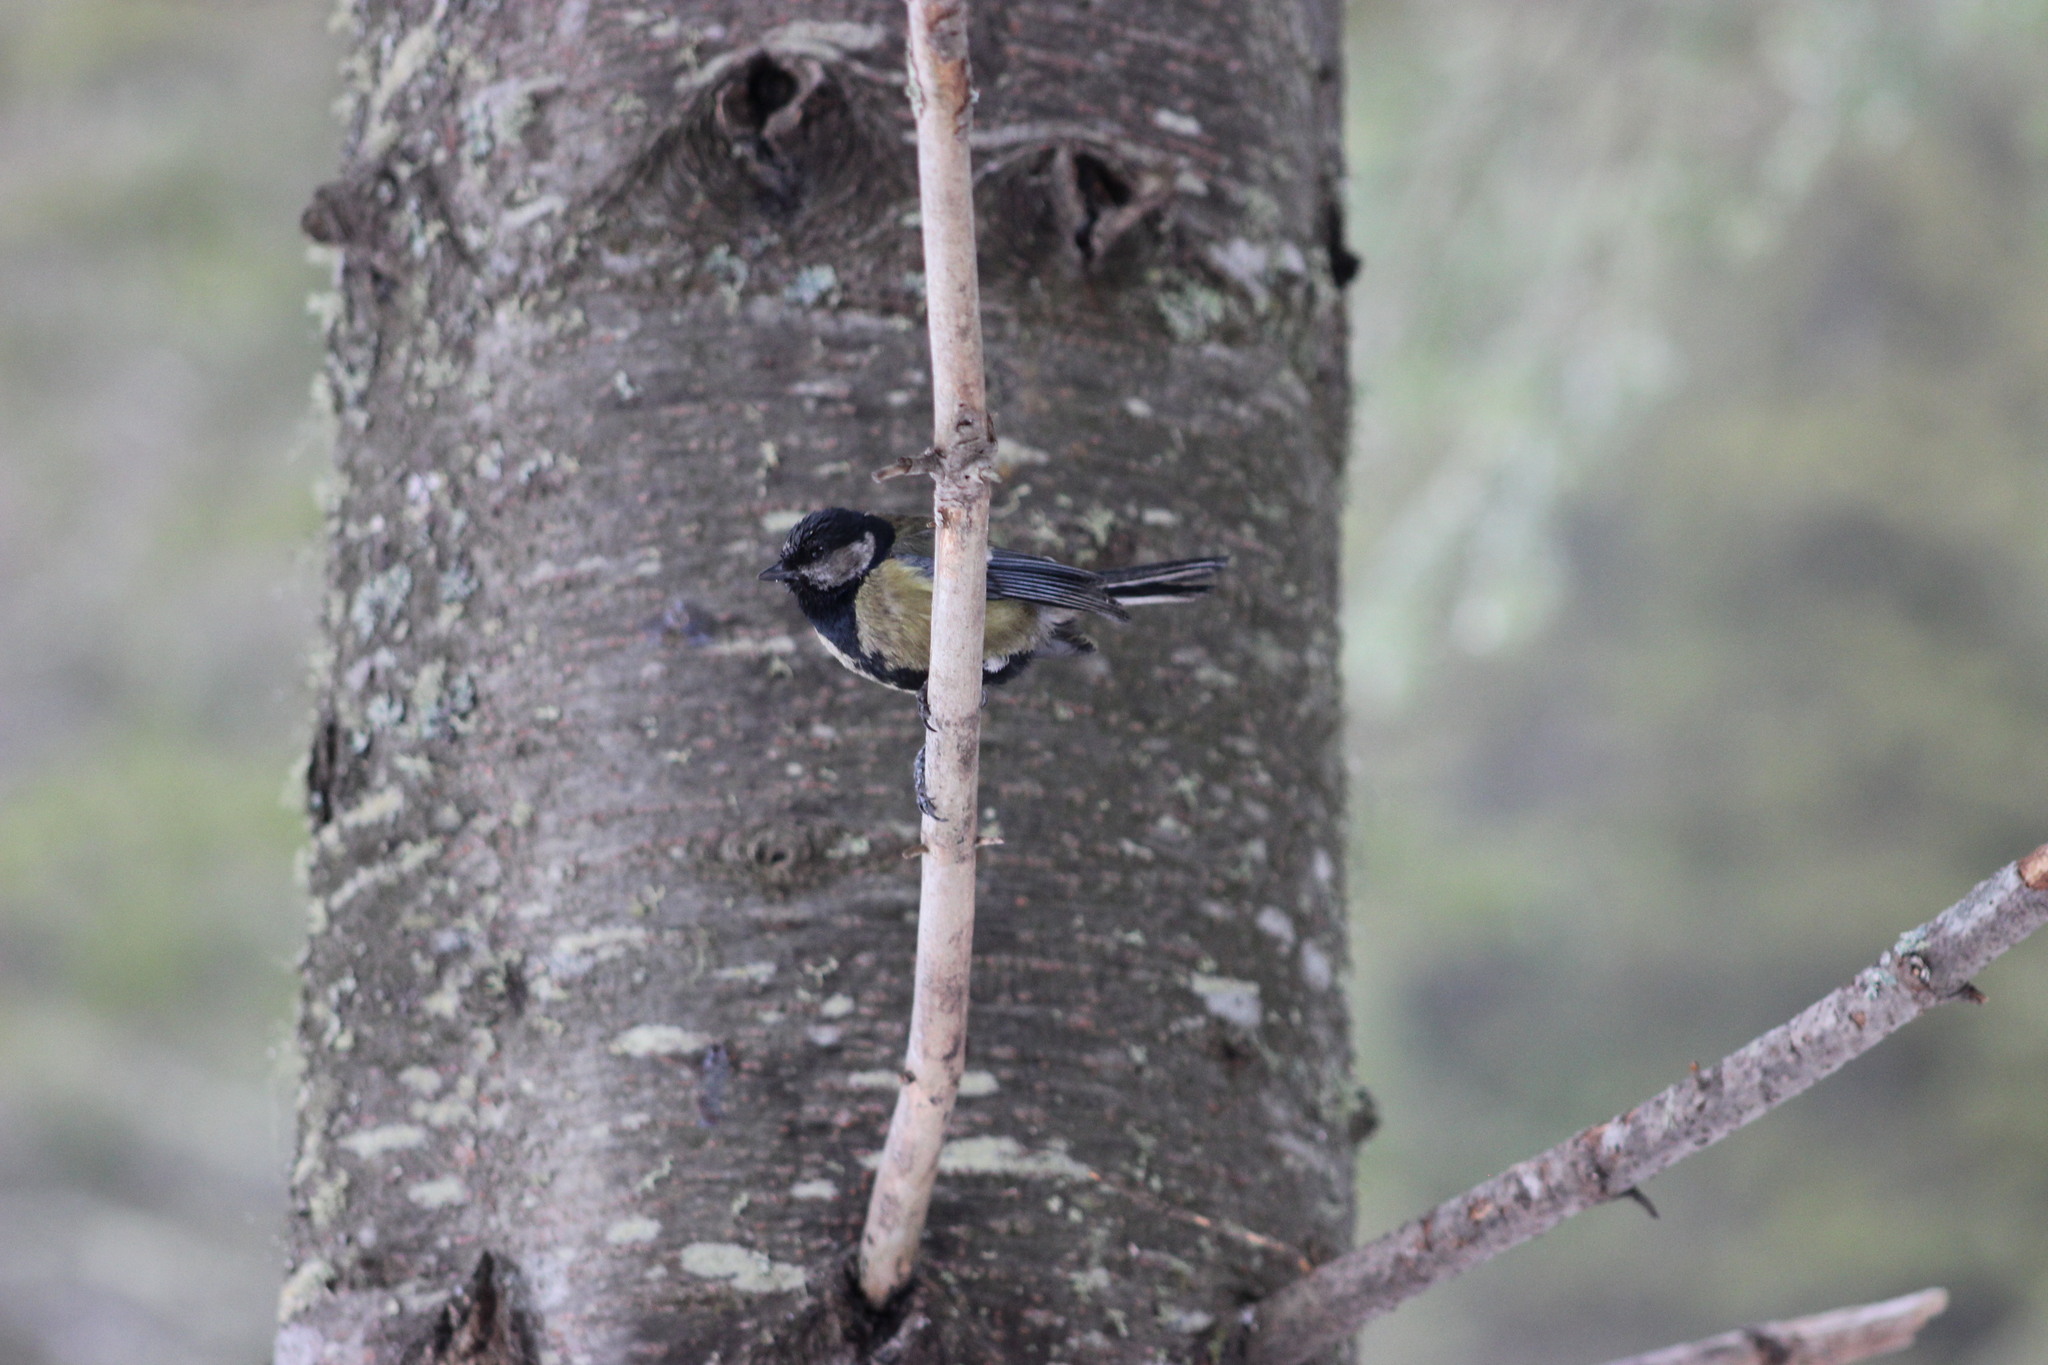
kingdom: Animalia
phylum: Chordata
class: Aves
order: Passeriformes
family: Paridae
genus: Parus
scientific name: Parus major
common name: Great tit
